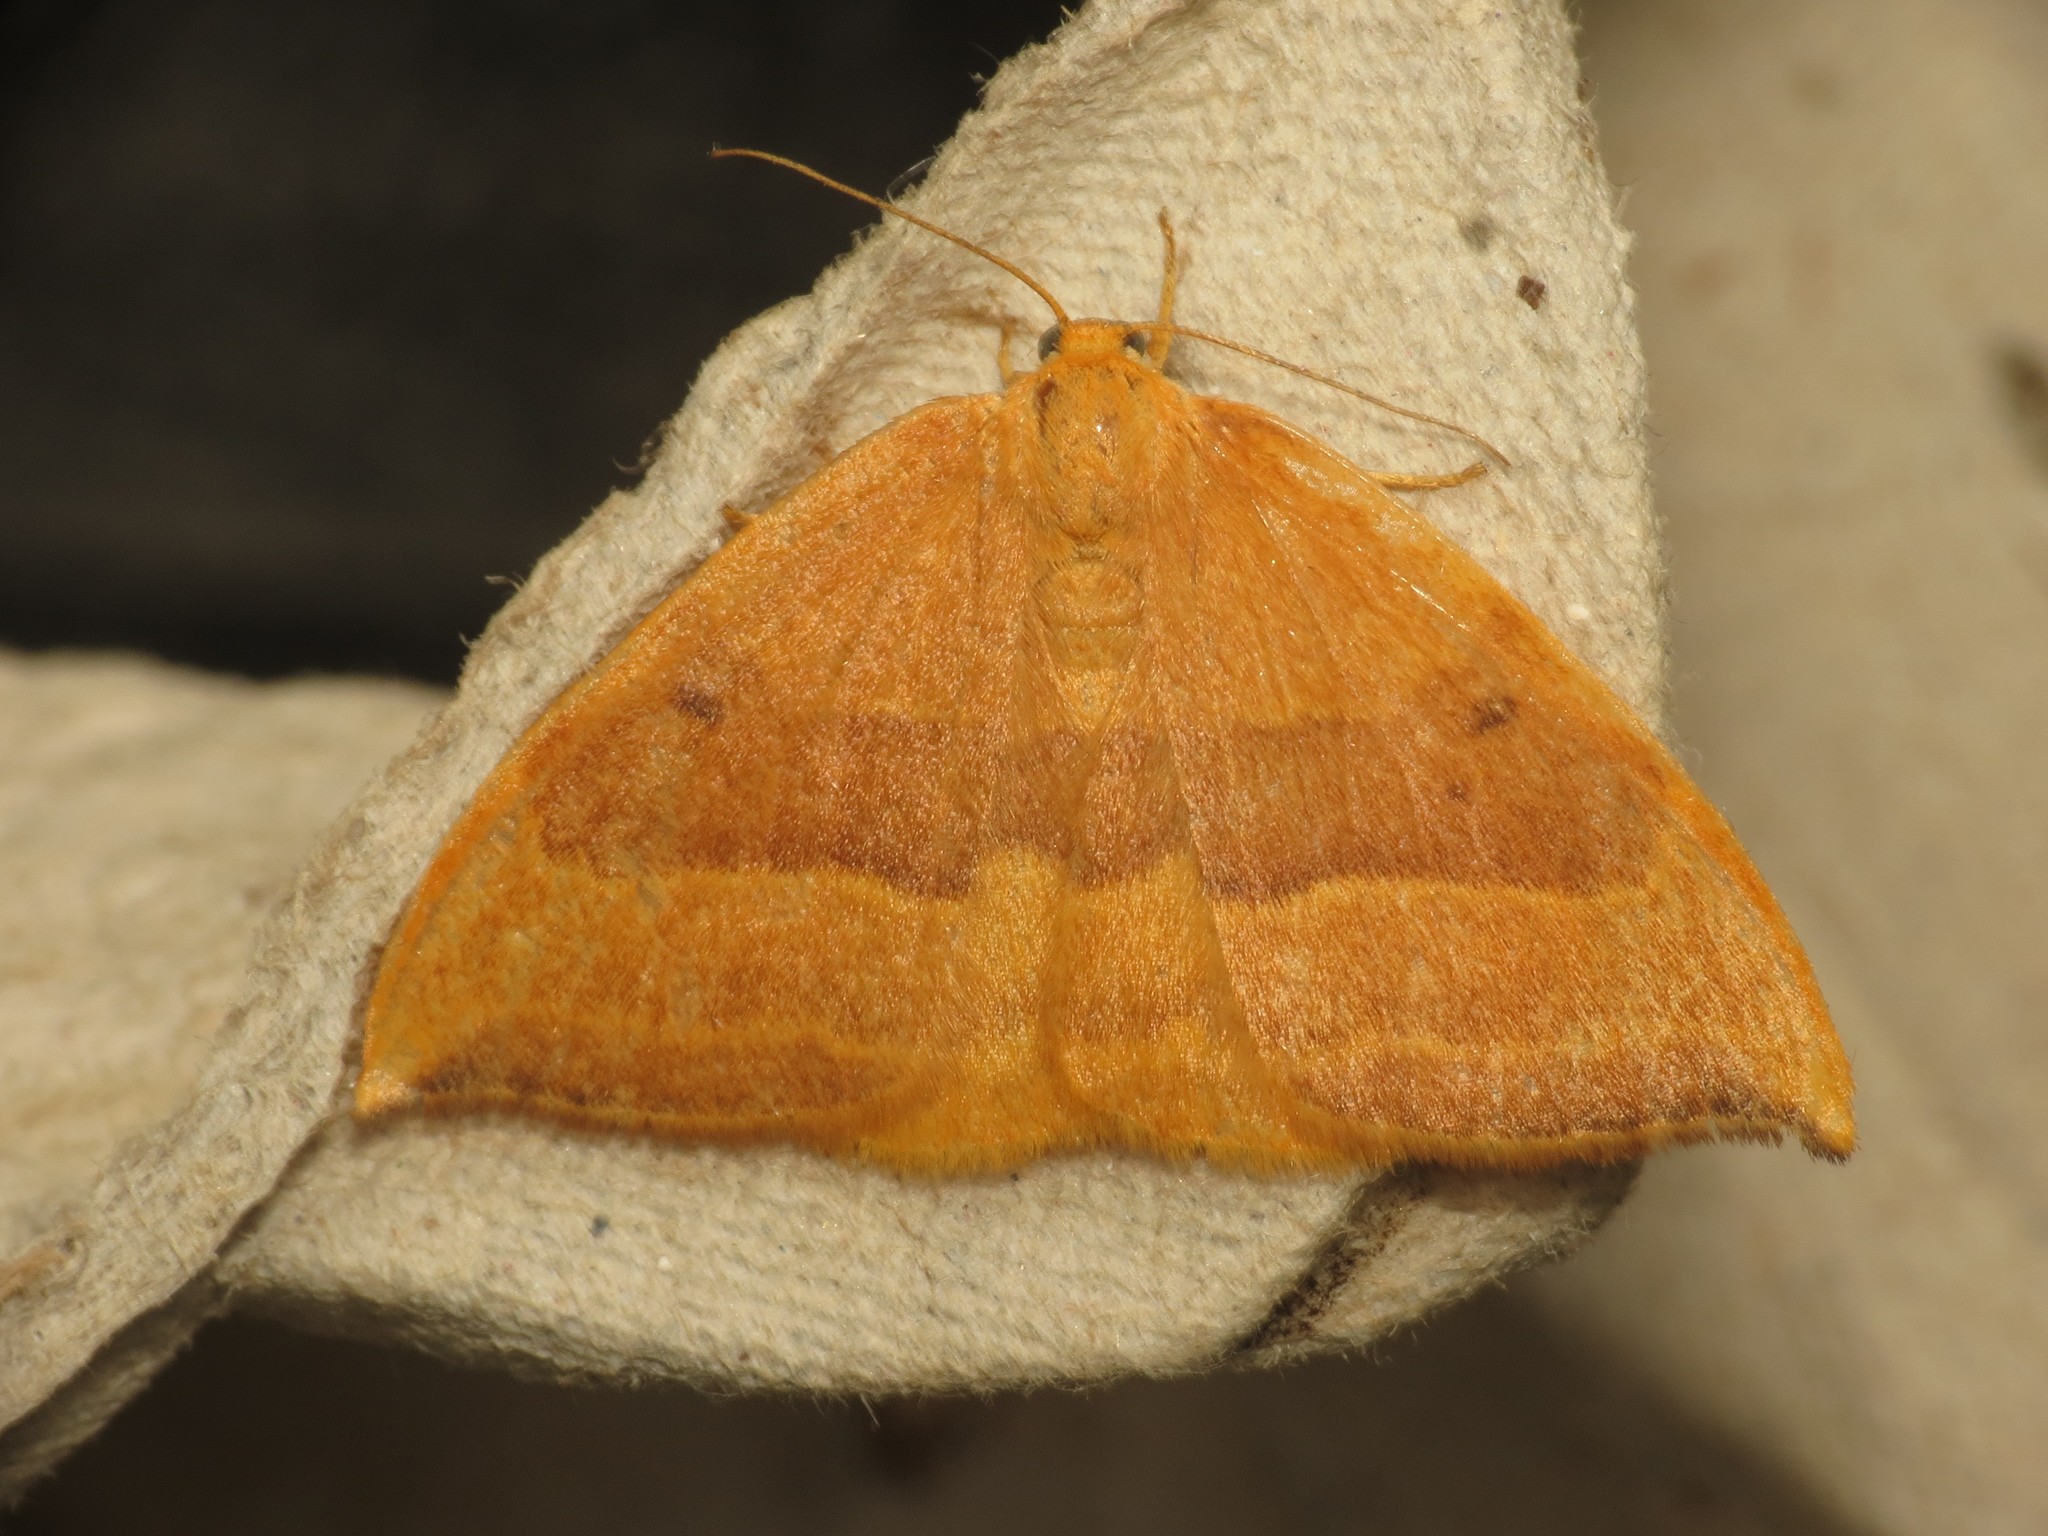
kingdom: Animalia
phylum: Arthropoda
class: Insecta
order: Lepidoptera
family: Drepanidae
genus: Watsonalla
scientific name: Watsonalla cultraria
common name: Barred hook-tip
